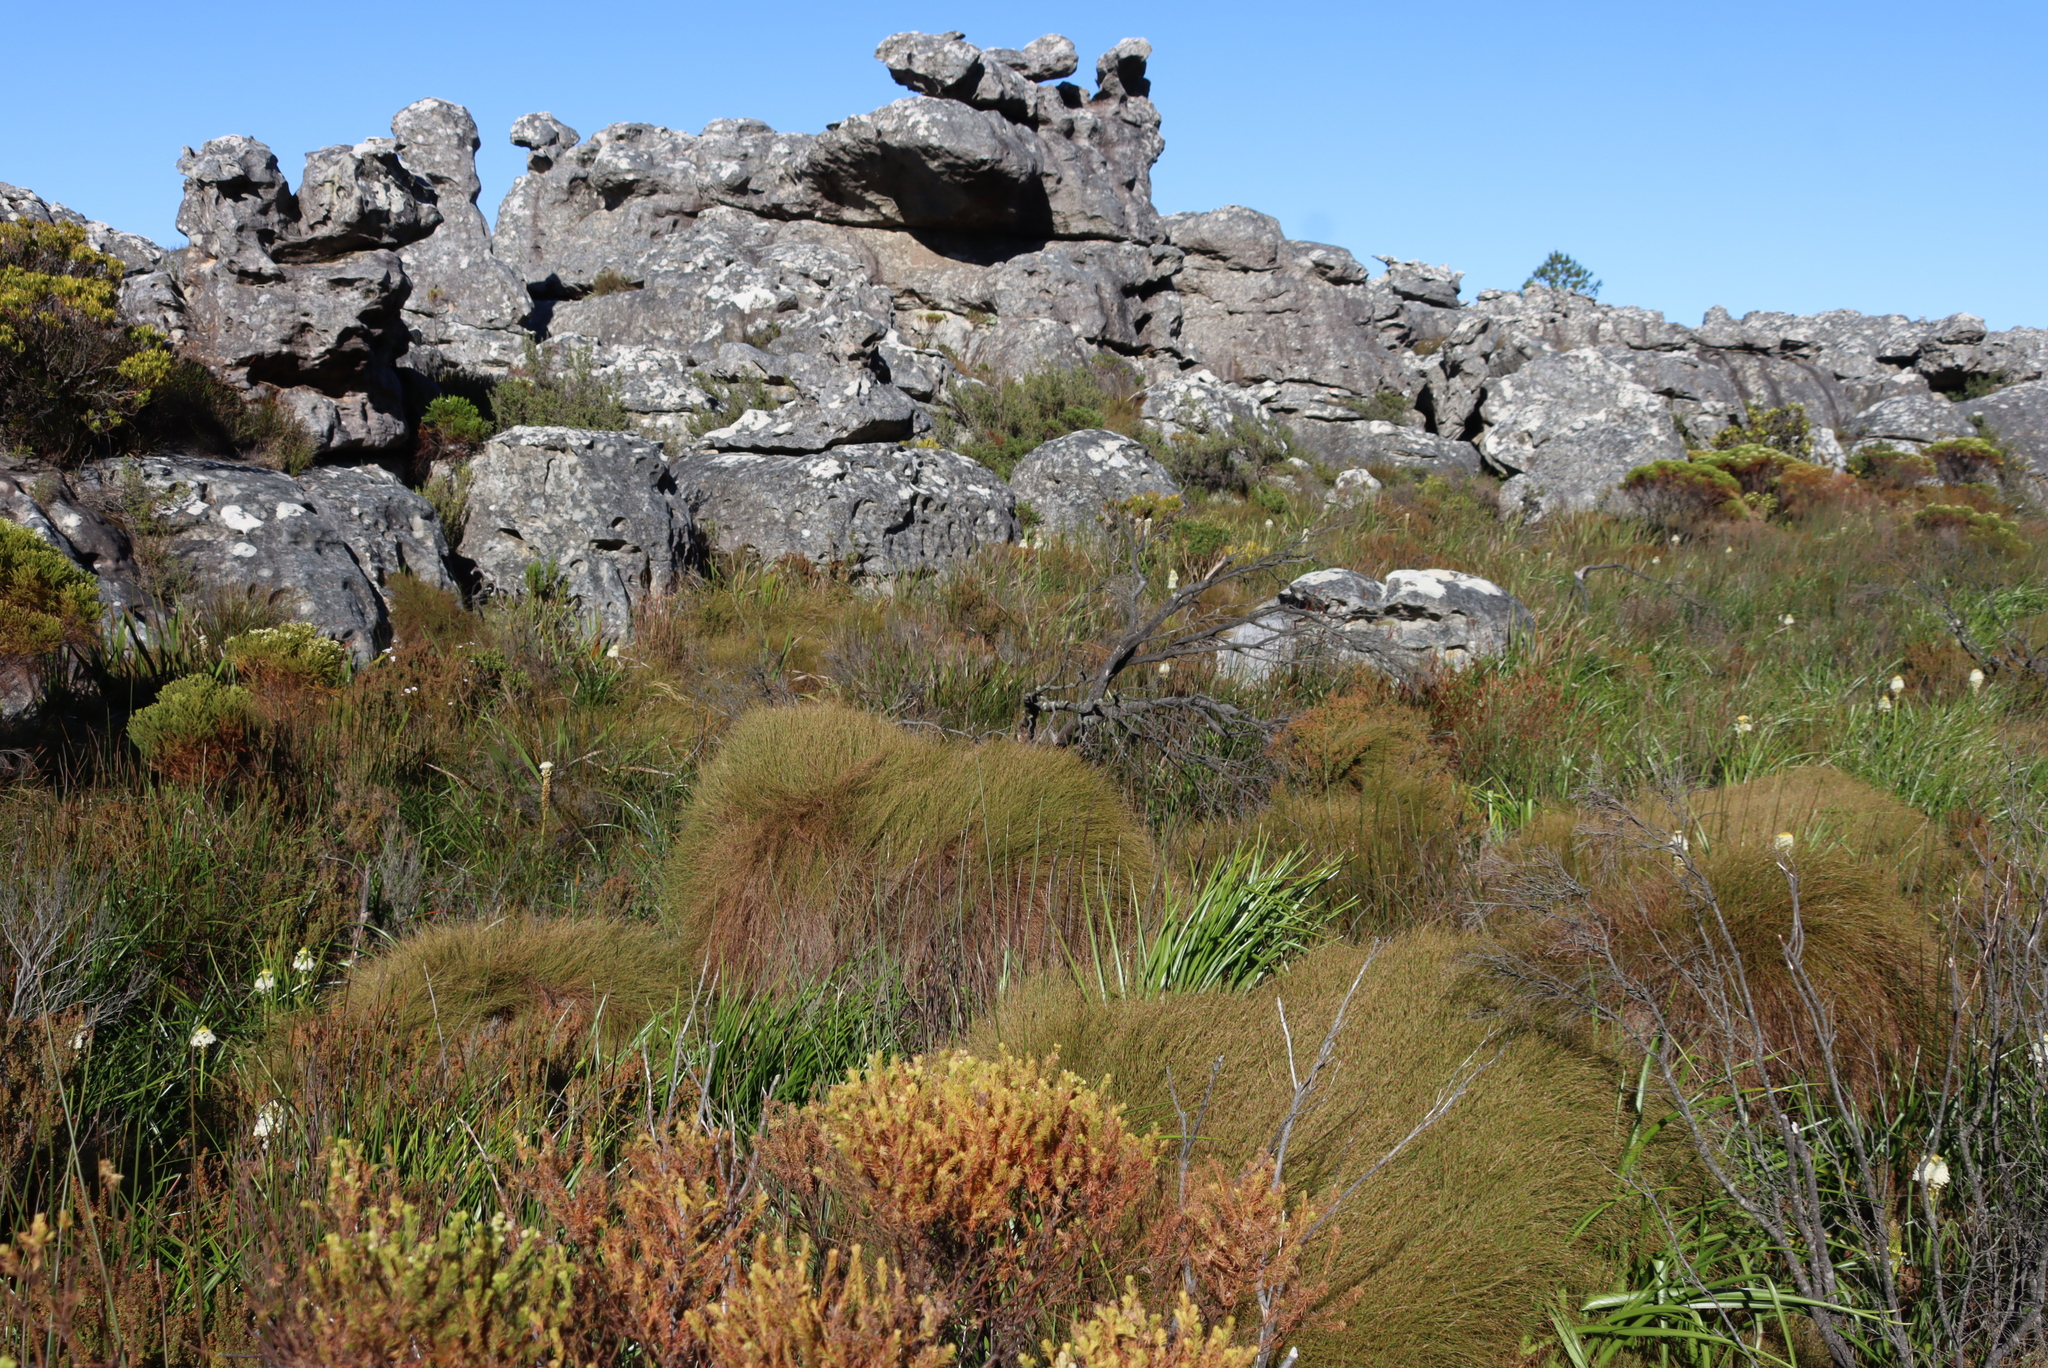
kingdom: Plantae
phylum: Tracheophyta
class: Liliopsida
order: Poales
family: Restionaceae
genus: Anthochortus
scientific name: Anthochortus crinalis
